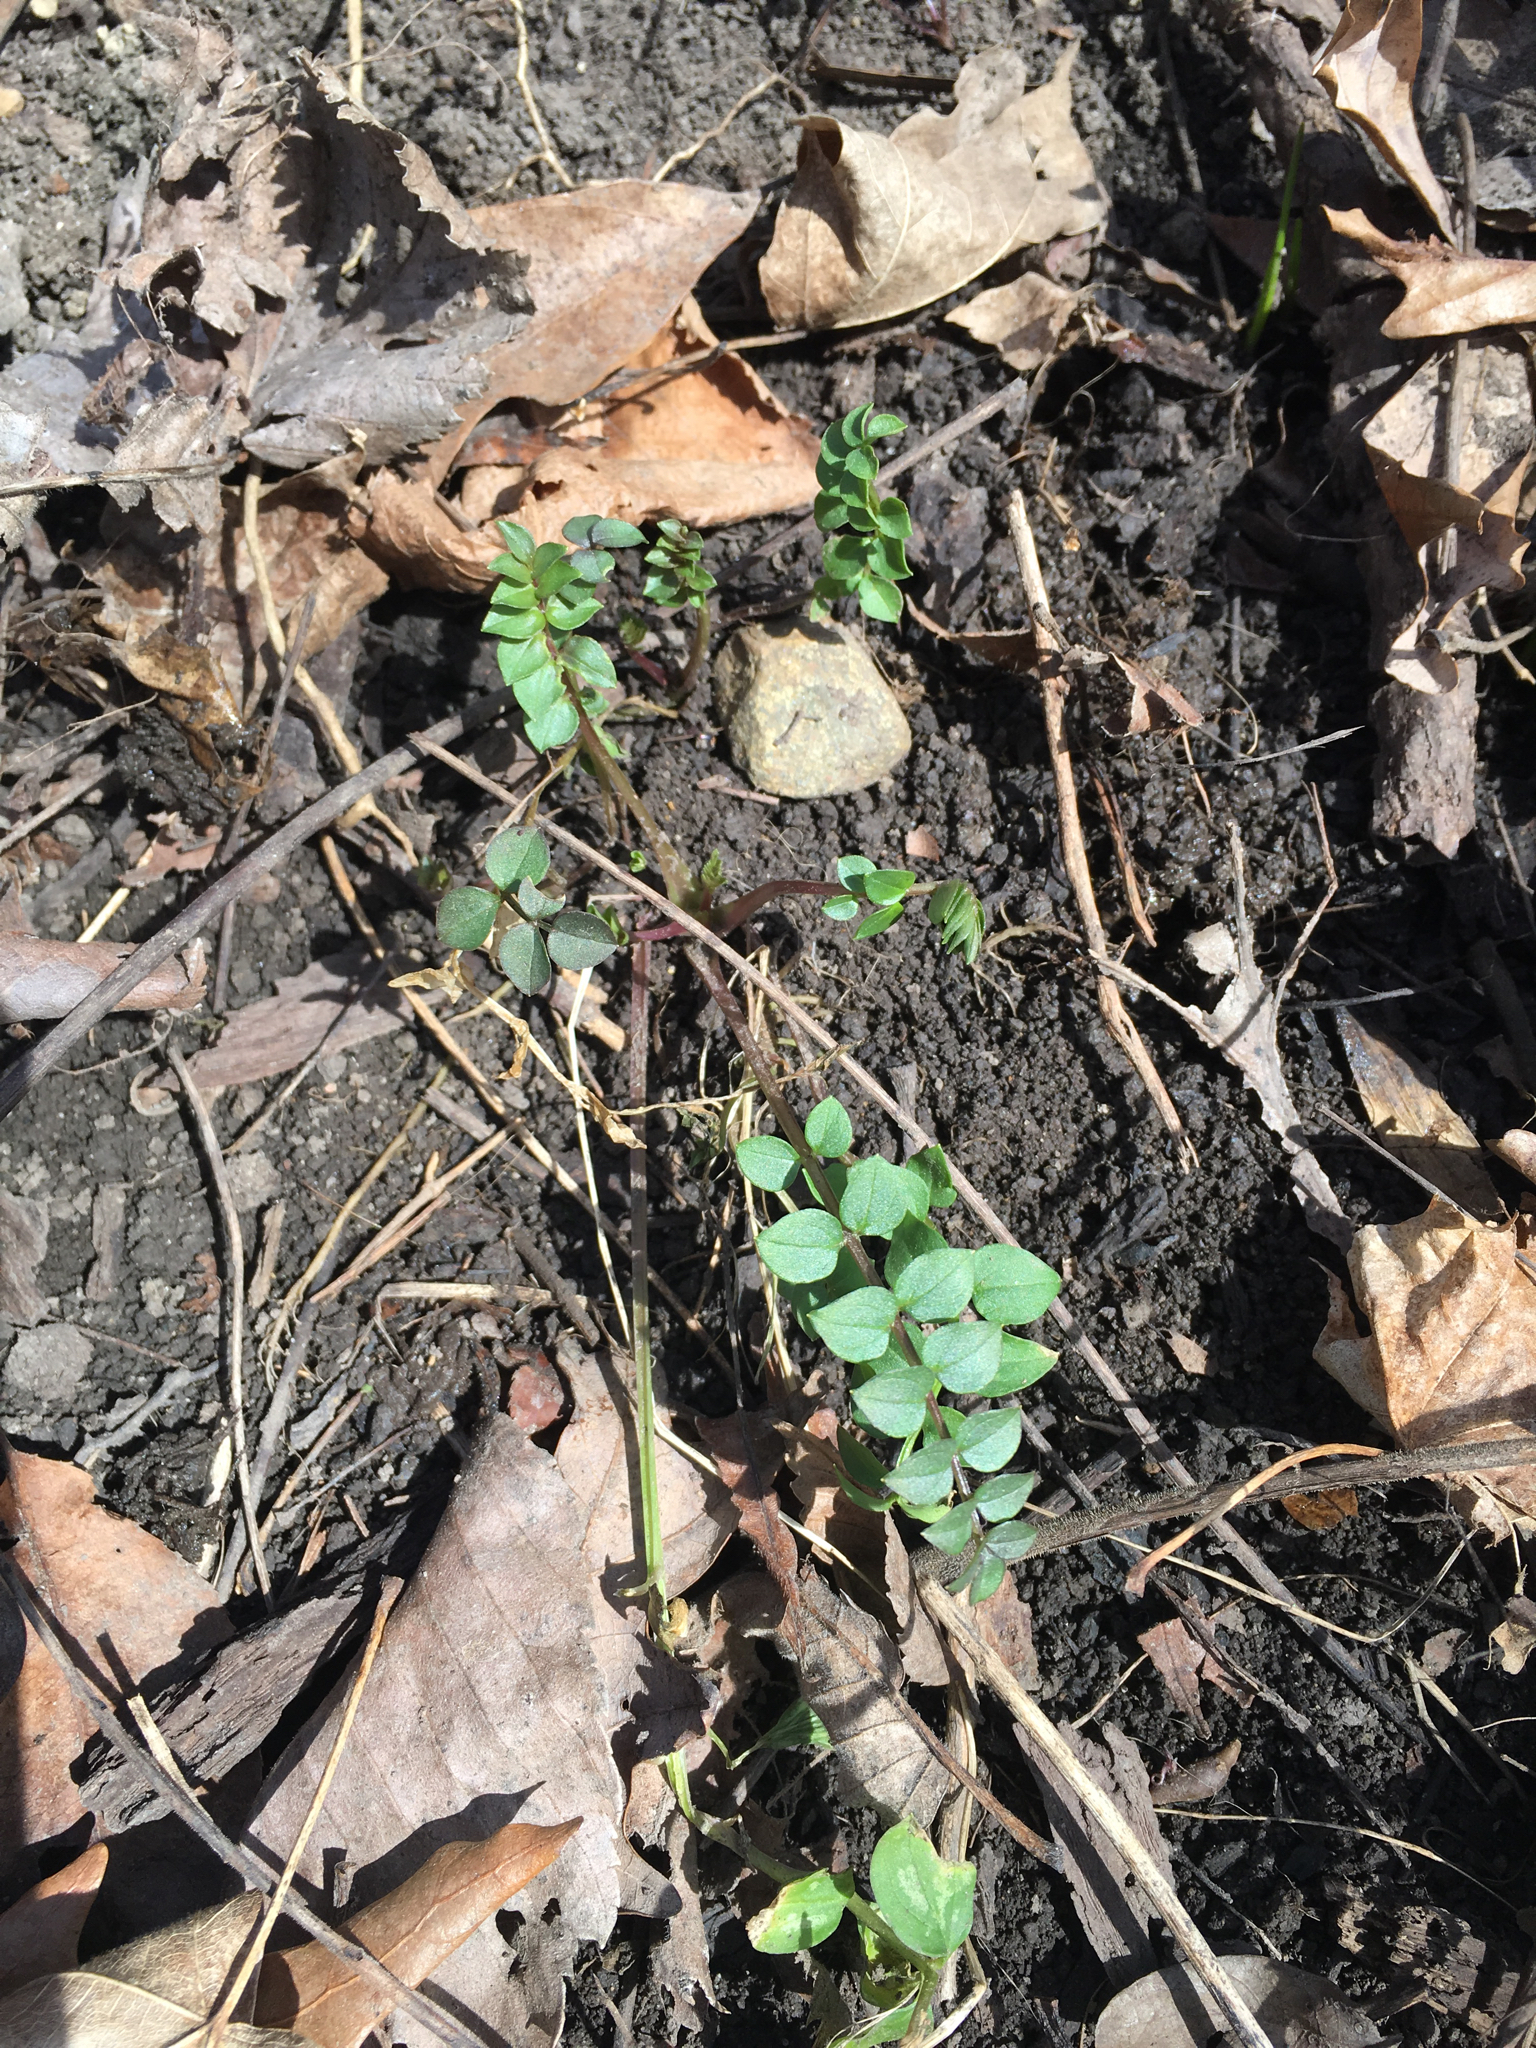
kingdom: Plantae
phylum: Tracheophyta
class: Magnoliopsida
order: Ericales
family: Polemoniaceae
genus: Polemonium
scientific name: Polemonium reptans
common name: Creeping jacob's-ladder
